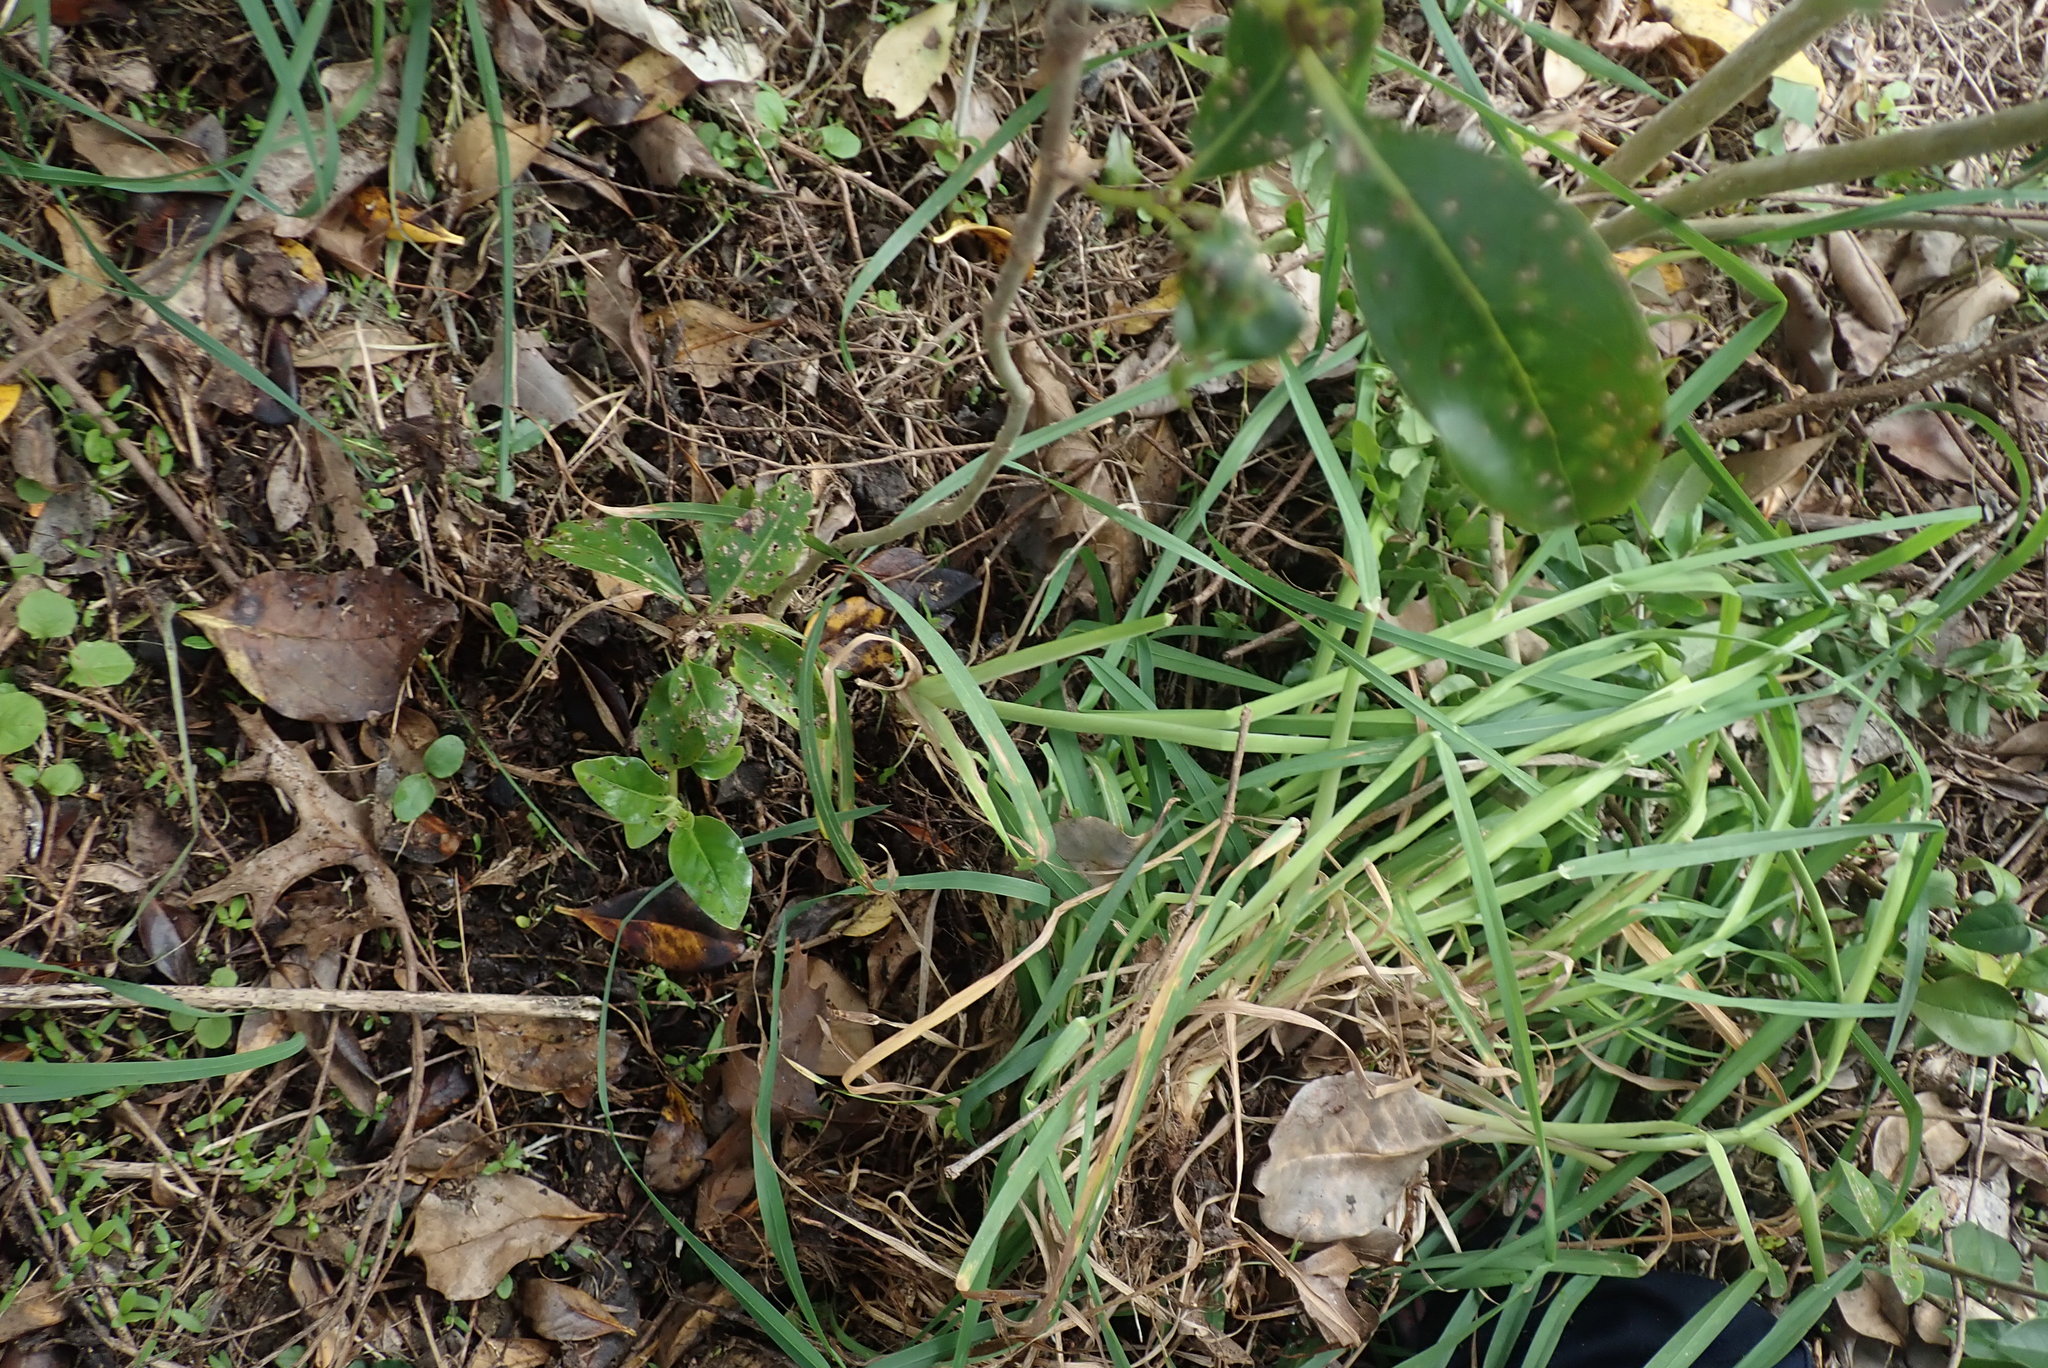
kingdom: Plantae
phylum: Tracheophyta
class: Liliopsida
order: Poales
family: Poaceae
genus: Dactylis
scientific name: Dactylis glomerata
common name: Orchardgrass
